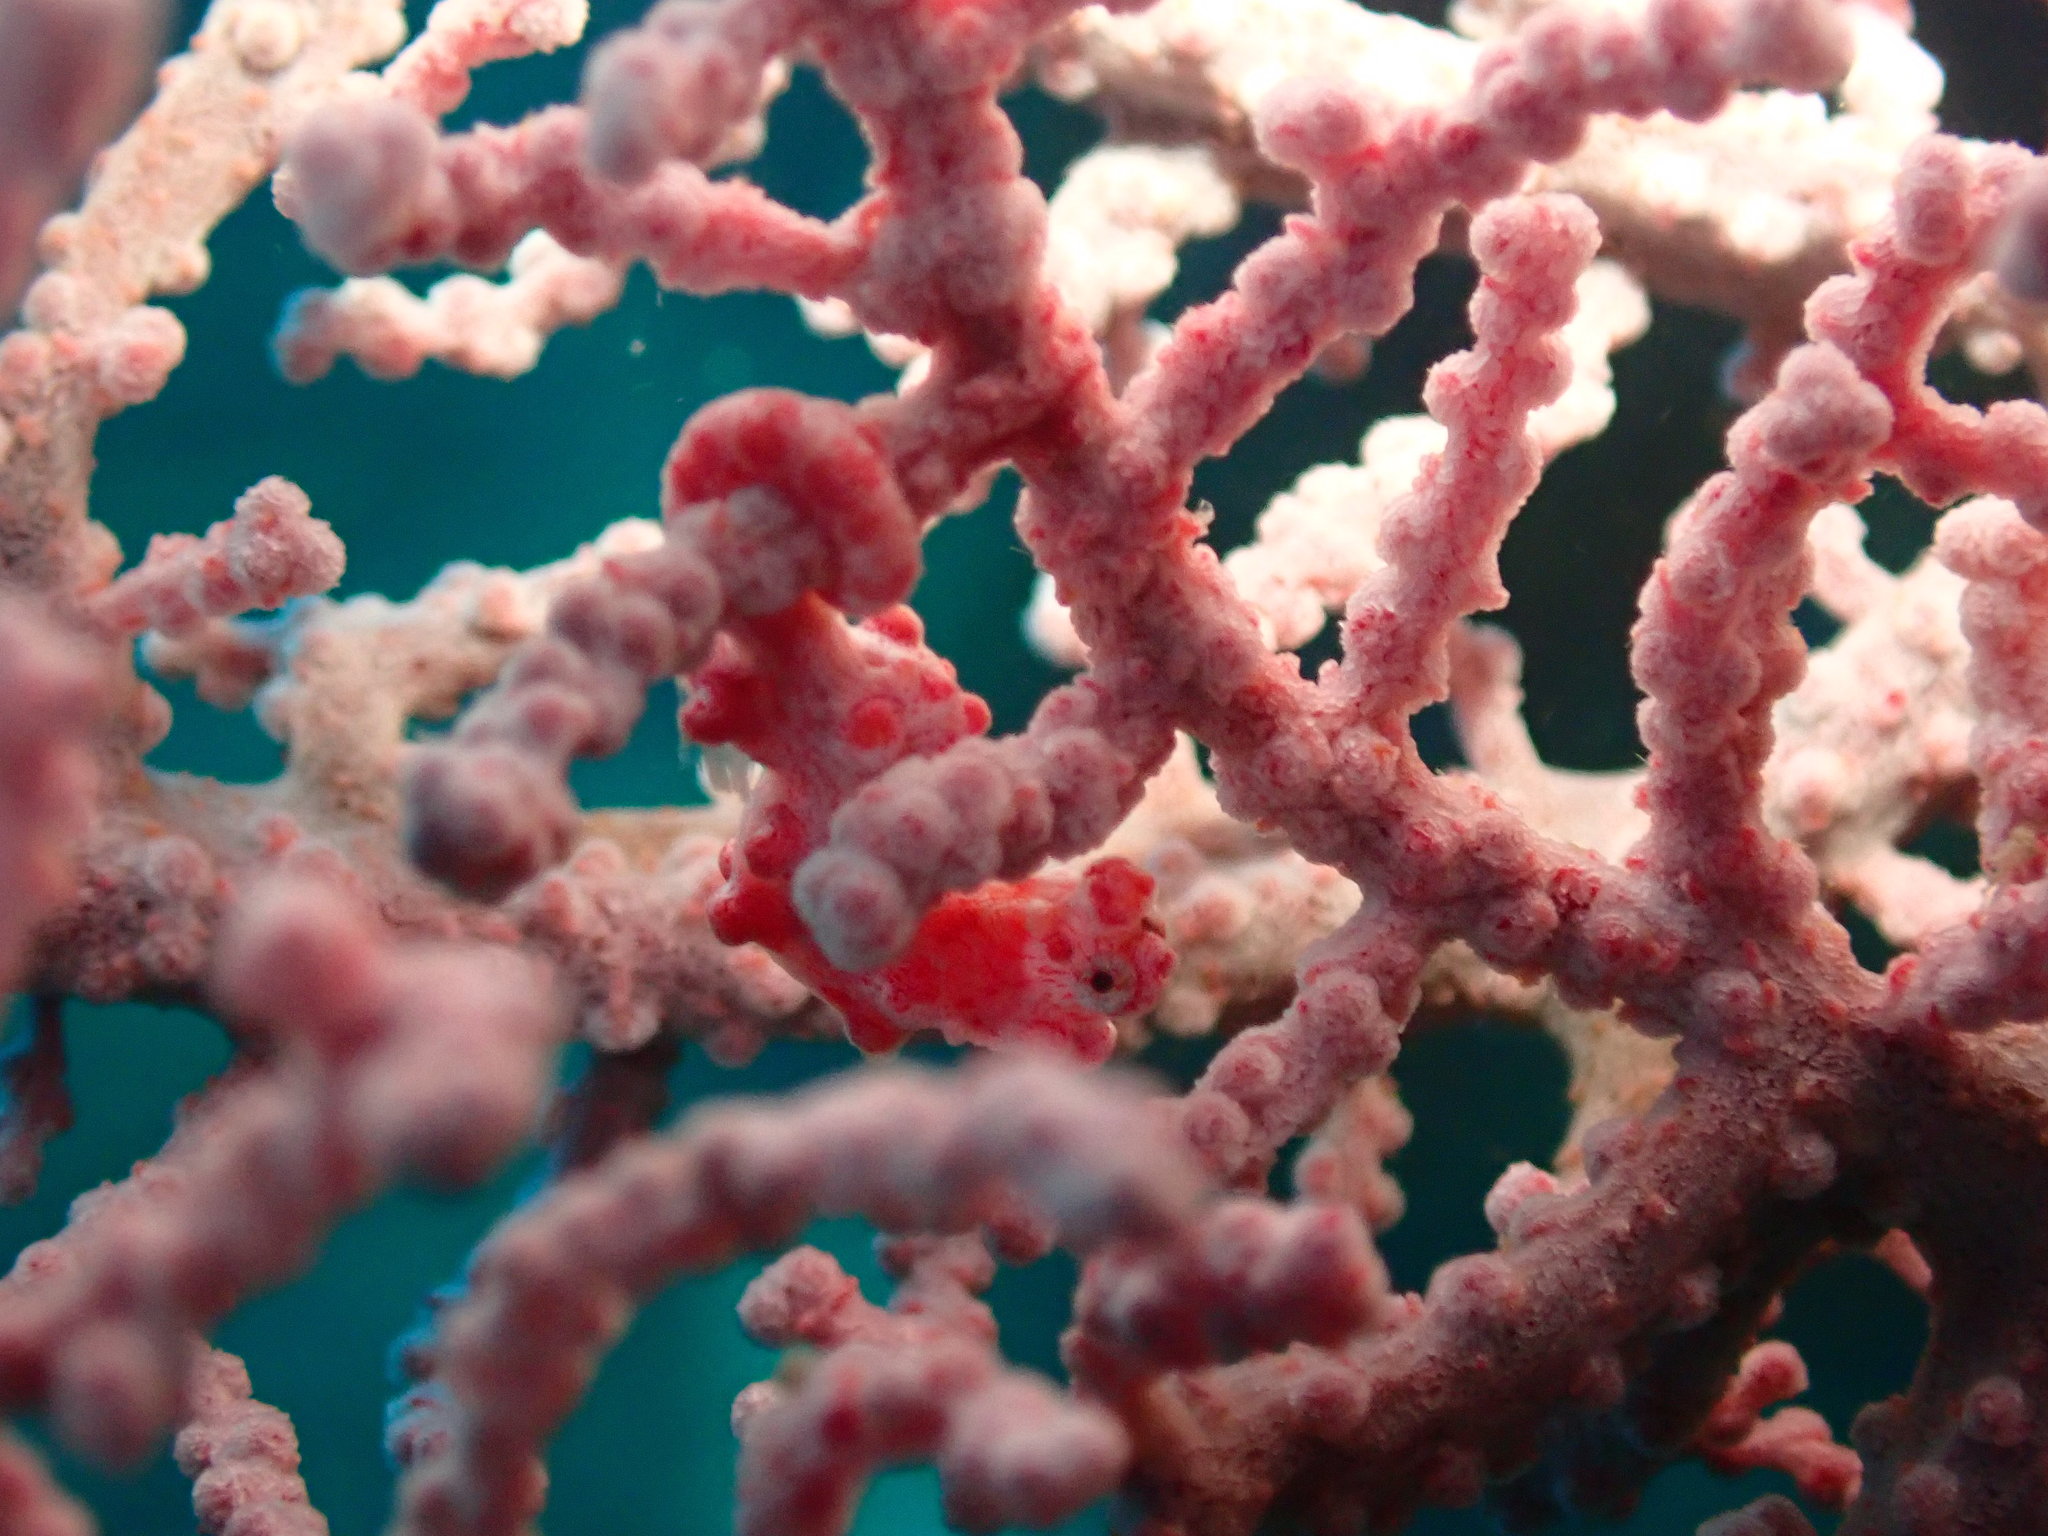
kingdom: Animalia
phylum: Chordata
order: Syngnathiformes
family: Syngnathidae
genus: Hippocampus
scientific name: Hippocampus bargibanti
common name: Bargibant's seahorse
